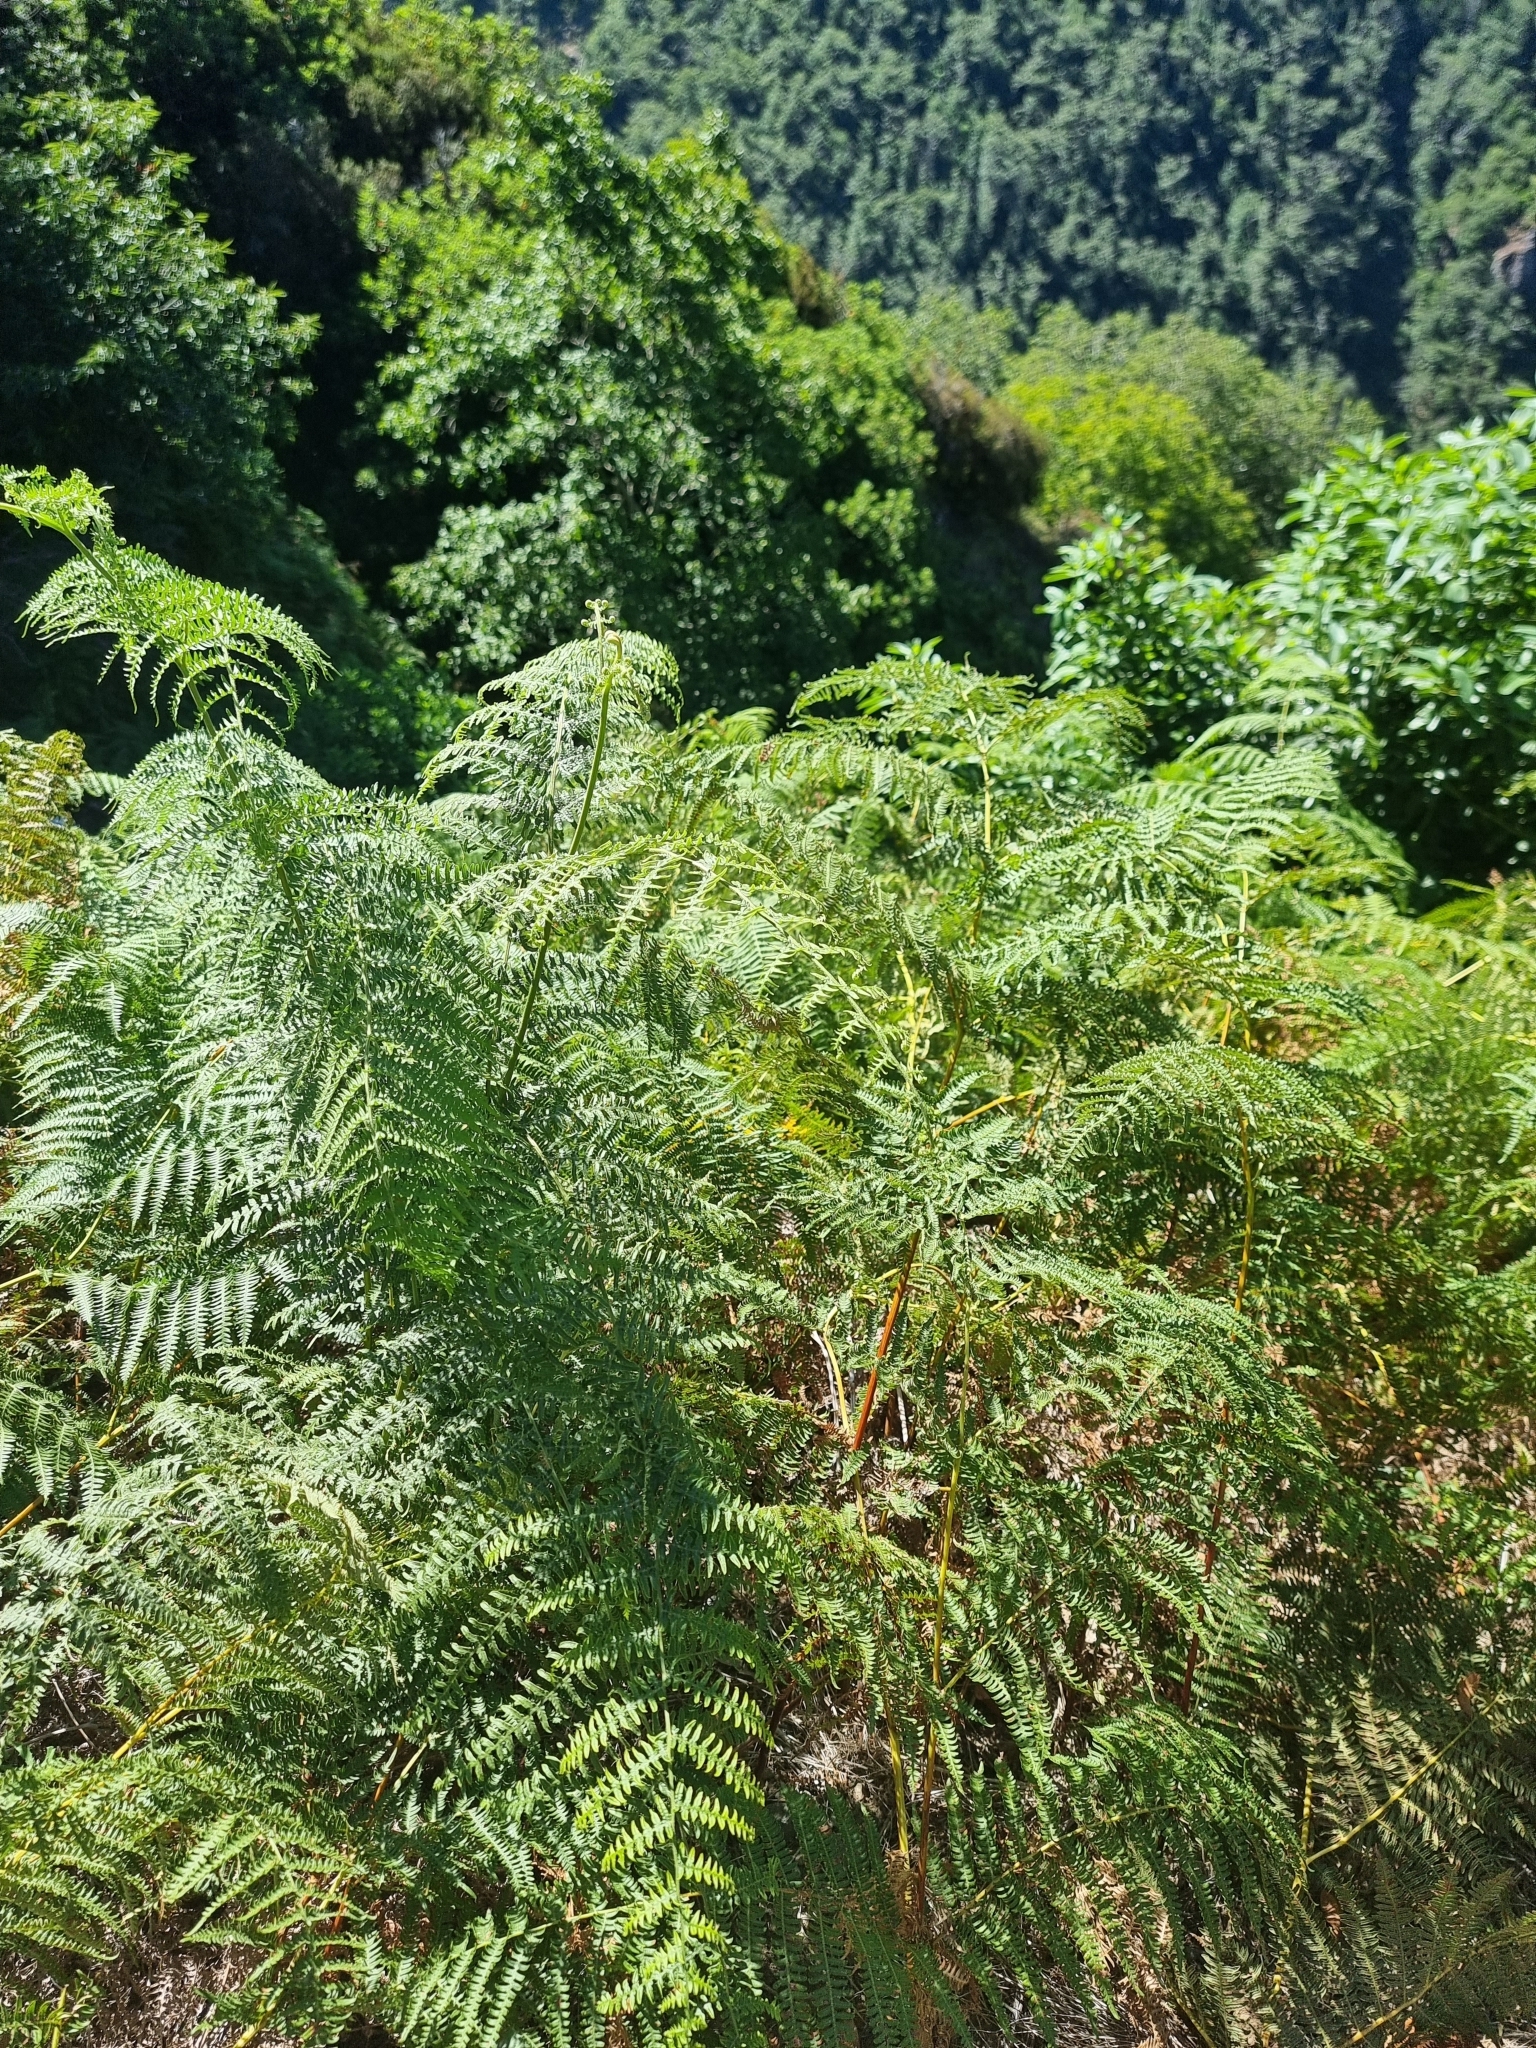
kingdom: Plantae
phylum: Tracheophyta
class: Polypodiopsida
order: Polypodiales
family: Dennstaedtiaceae
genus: Pteridium
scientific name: Pteridium aquilinum
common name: Bracken
